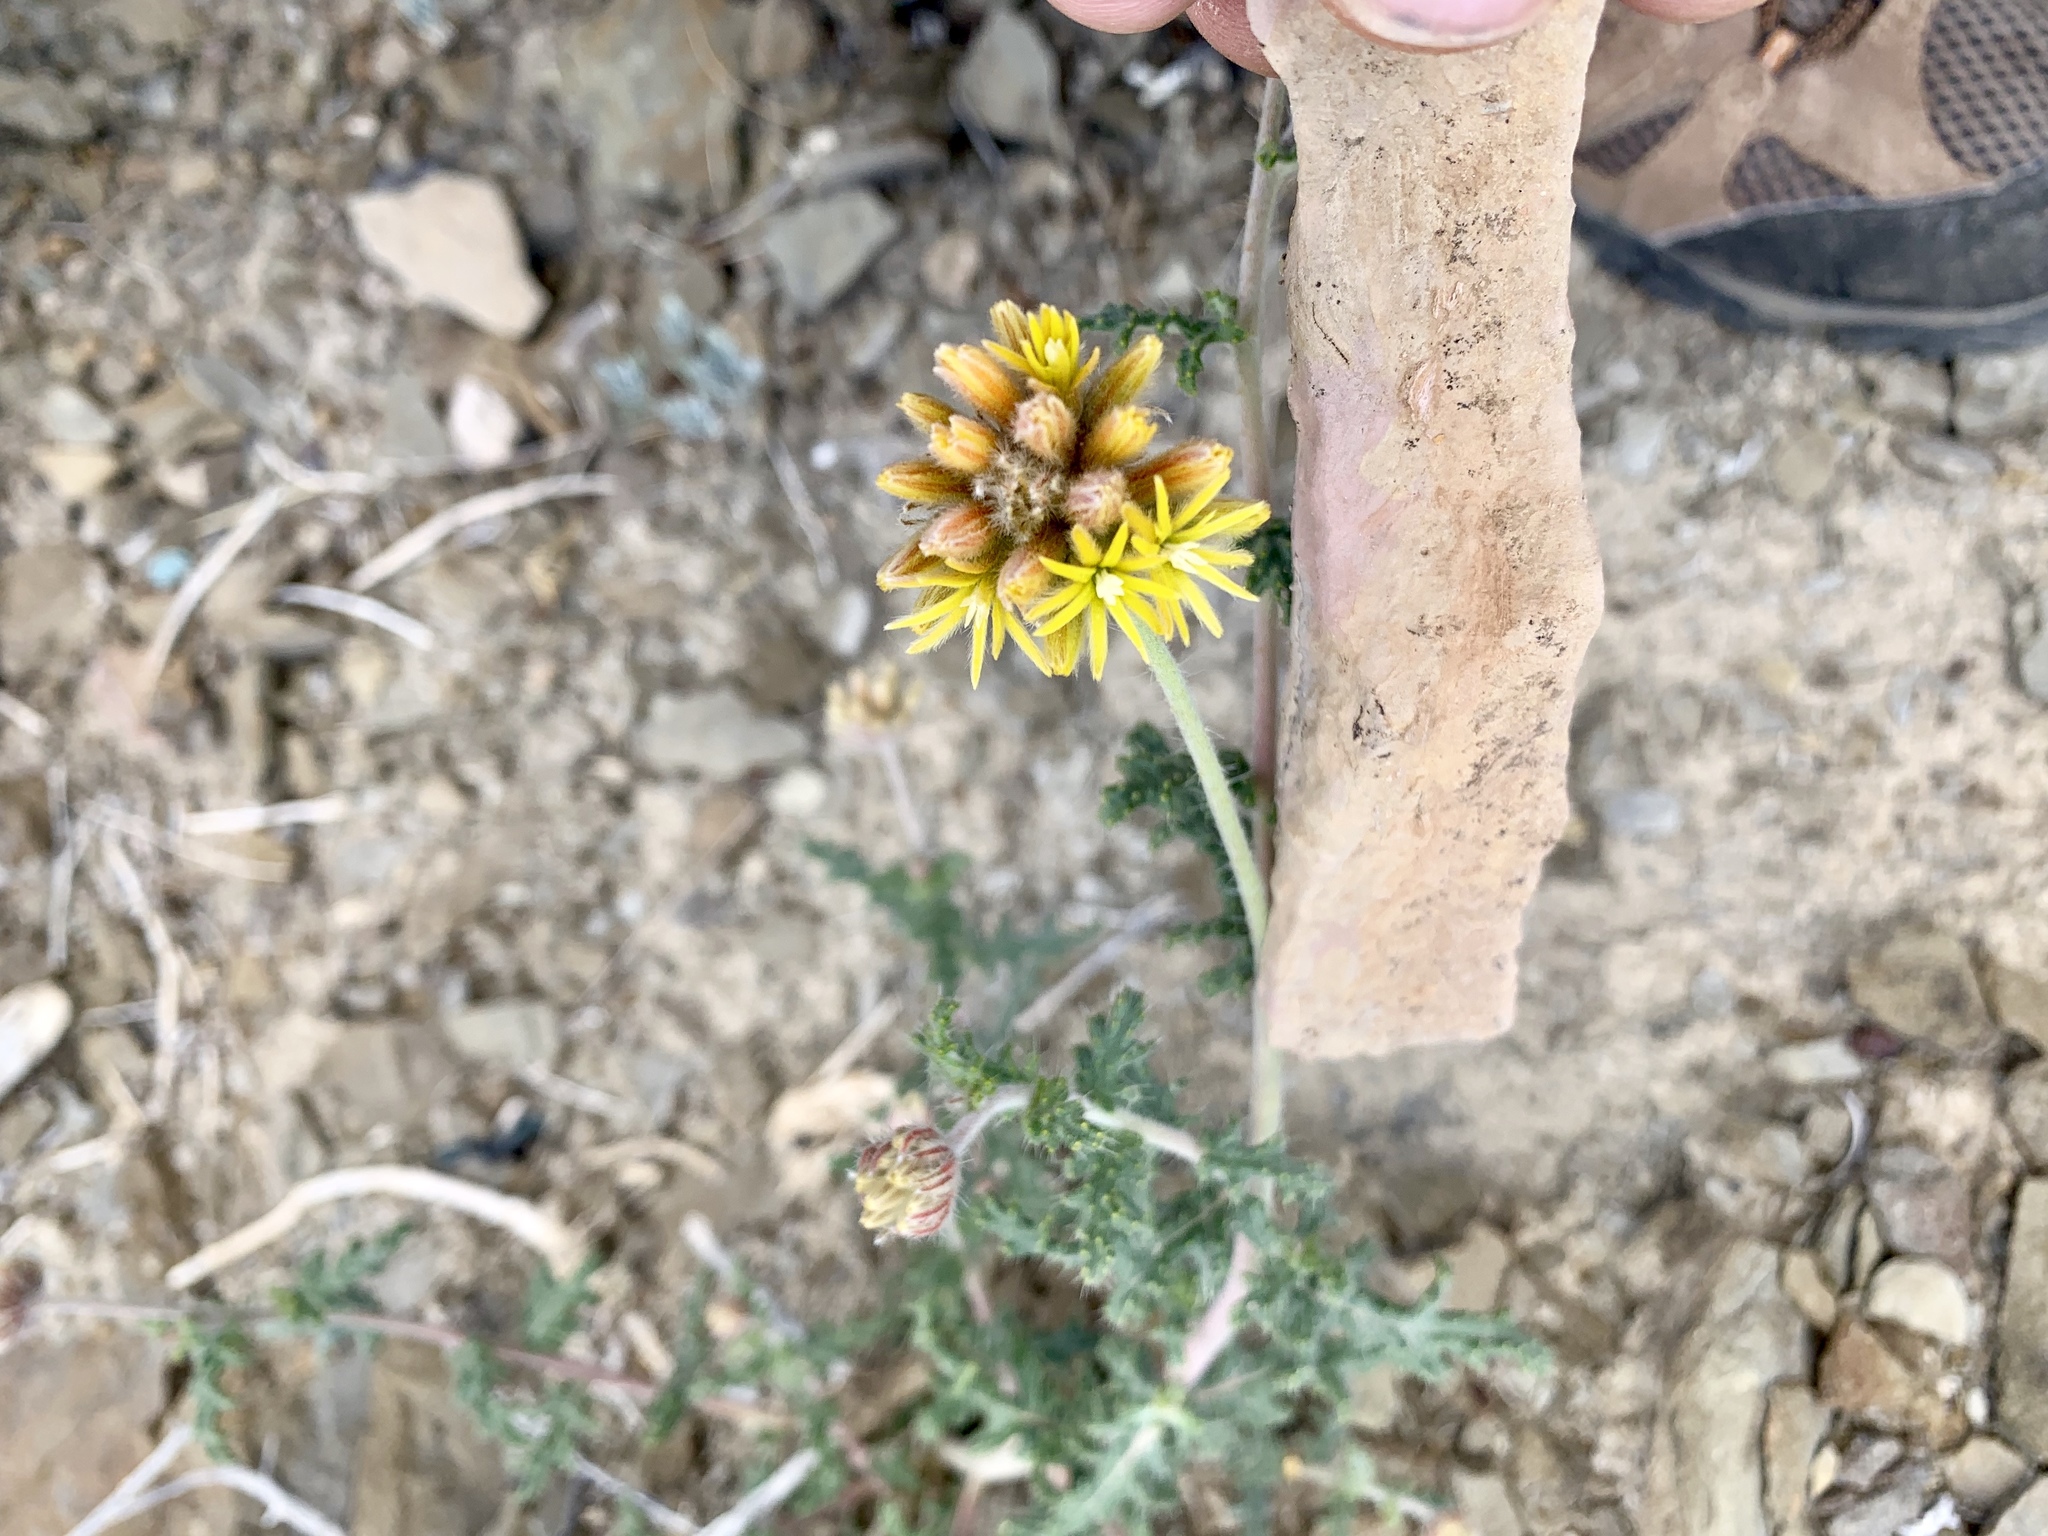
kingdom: Plantae
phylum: Tracheophyta
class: Magnoliopsida
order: Cornales
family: Loasaceae
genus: Cevallia
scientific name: Cevallia sinuata
